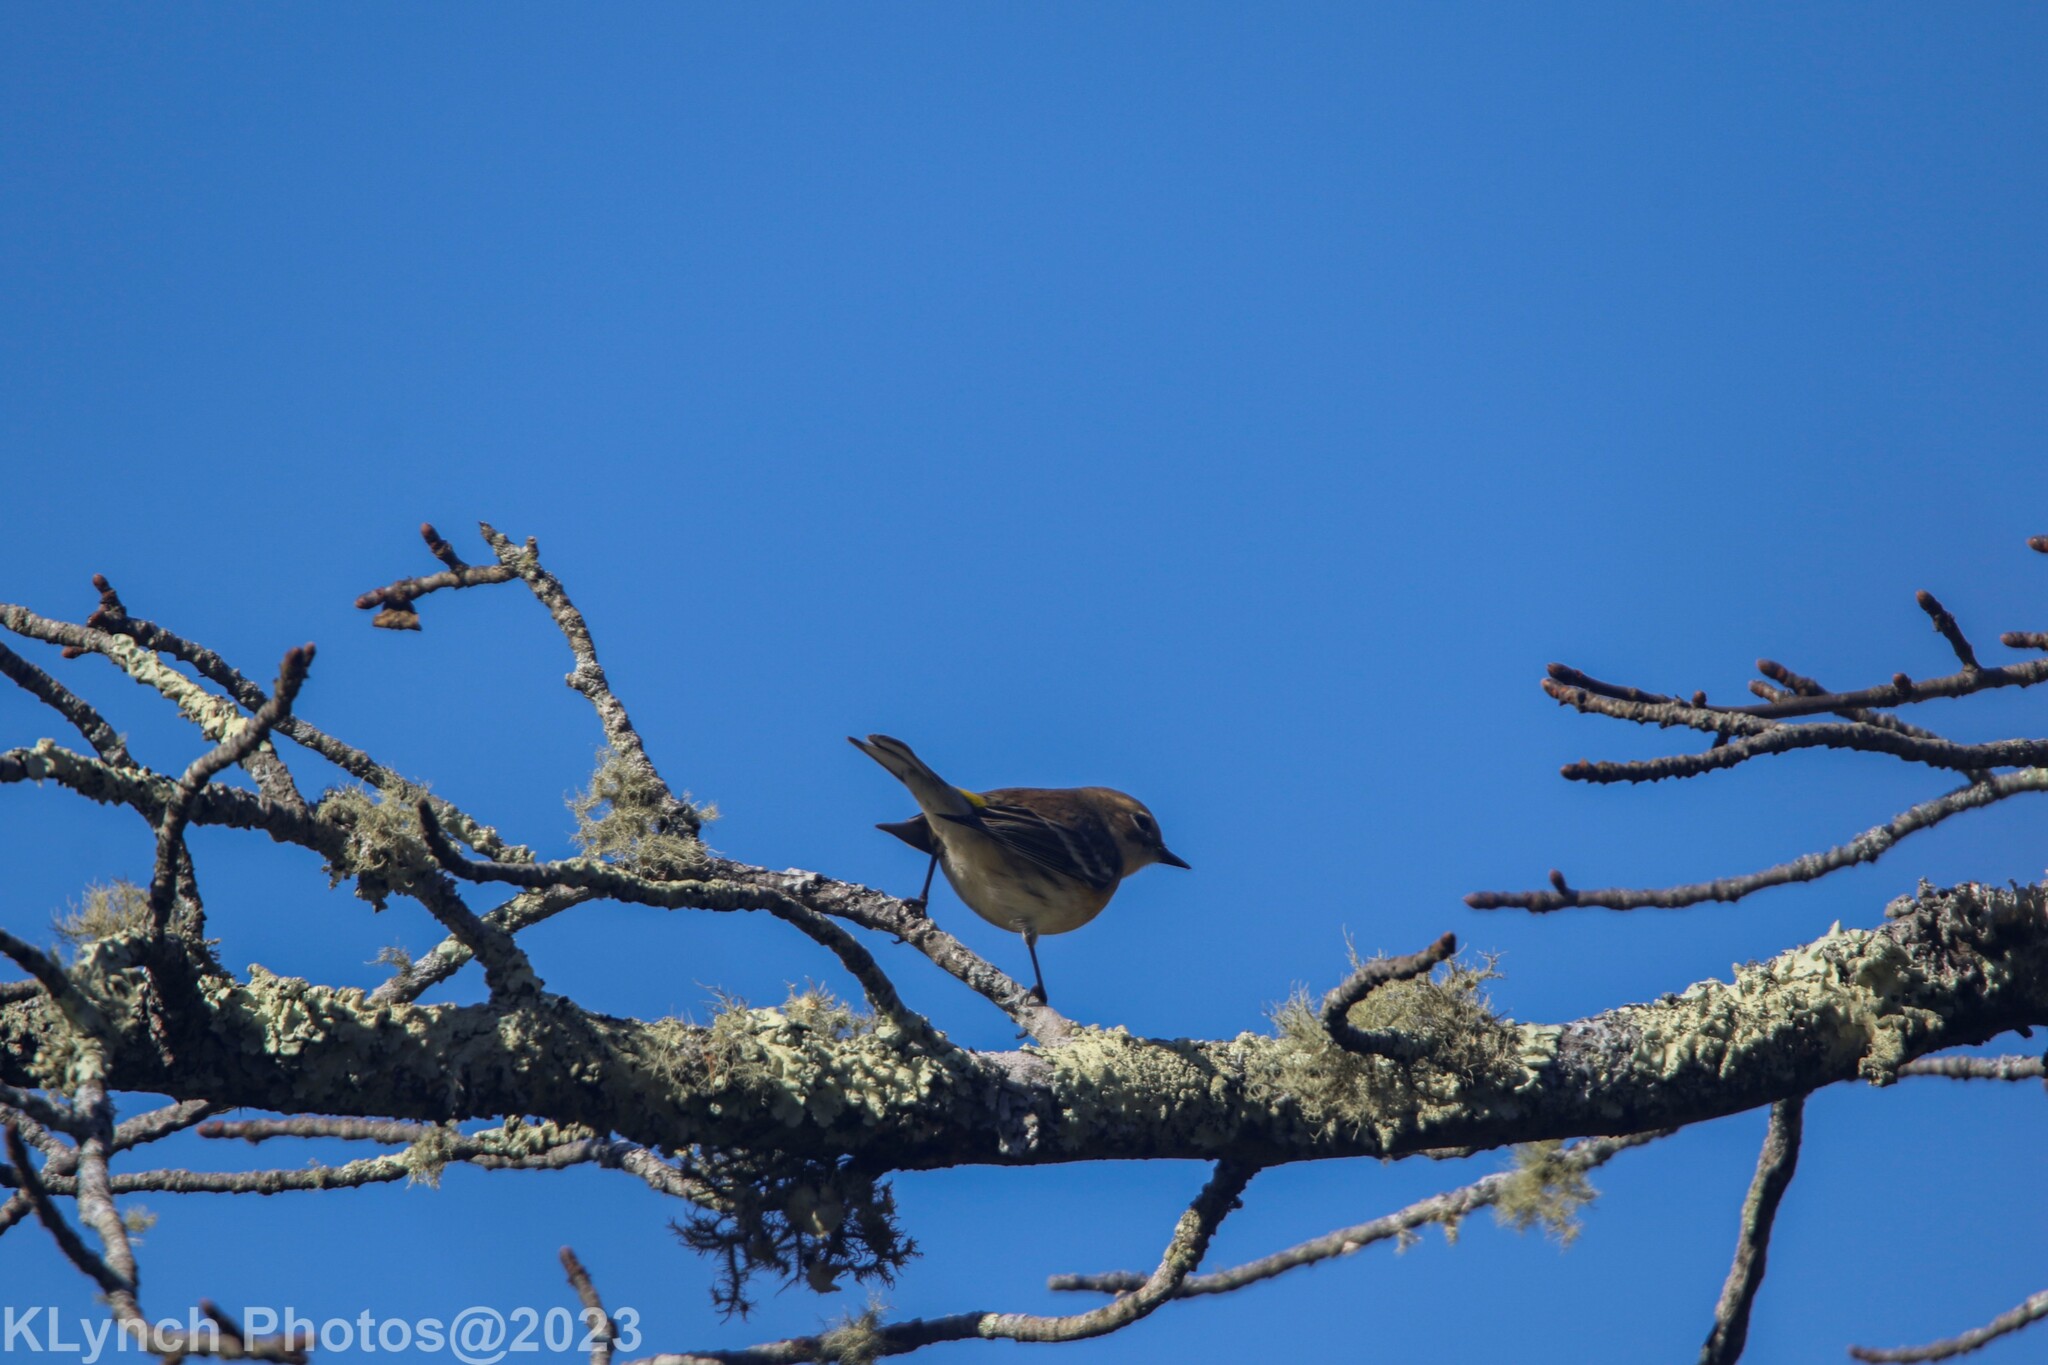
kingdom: Animalia
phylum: Chordata
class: Aves
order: Passeriformes
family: Parulidae
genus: Setophaga
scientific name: Setophaga coronata
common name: Myrtle warbler
